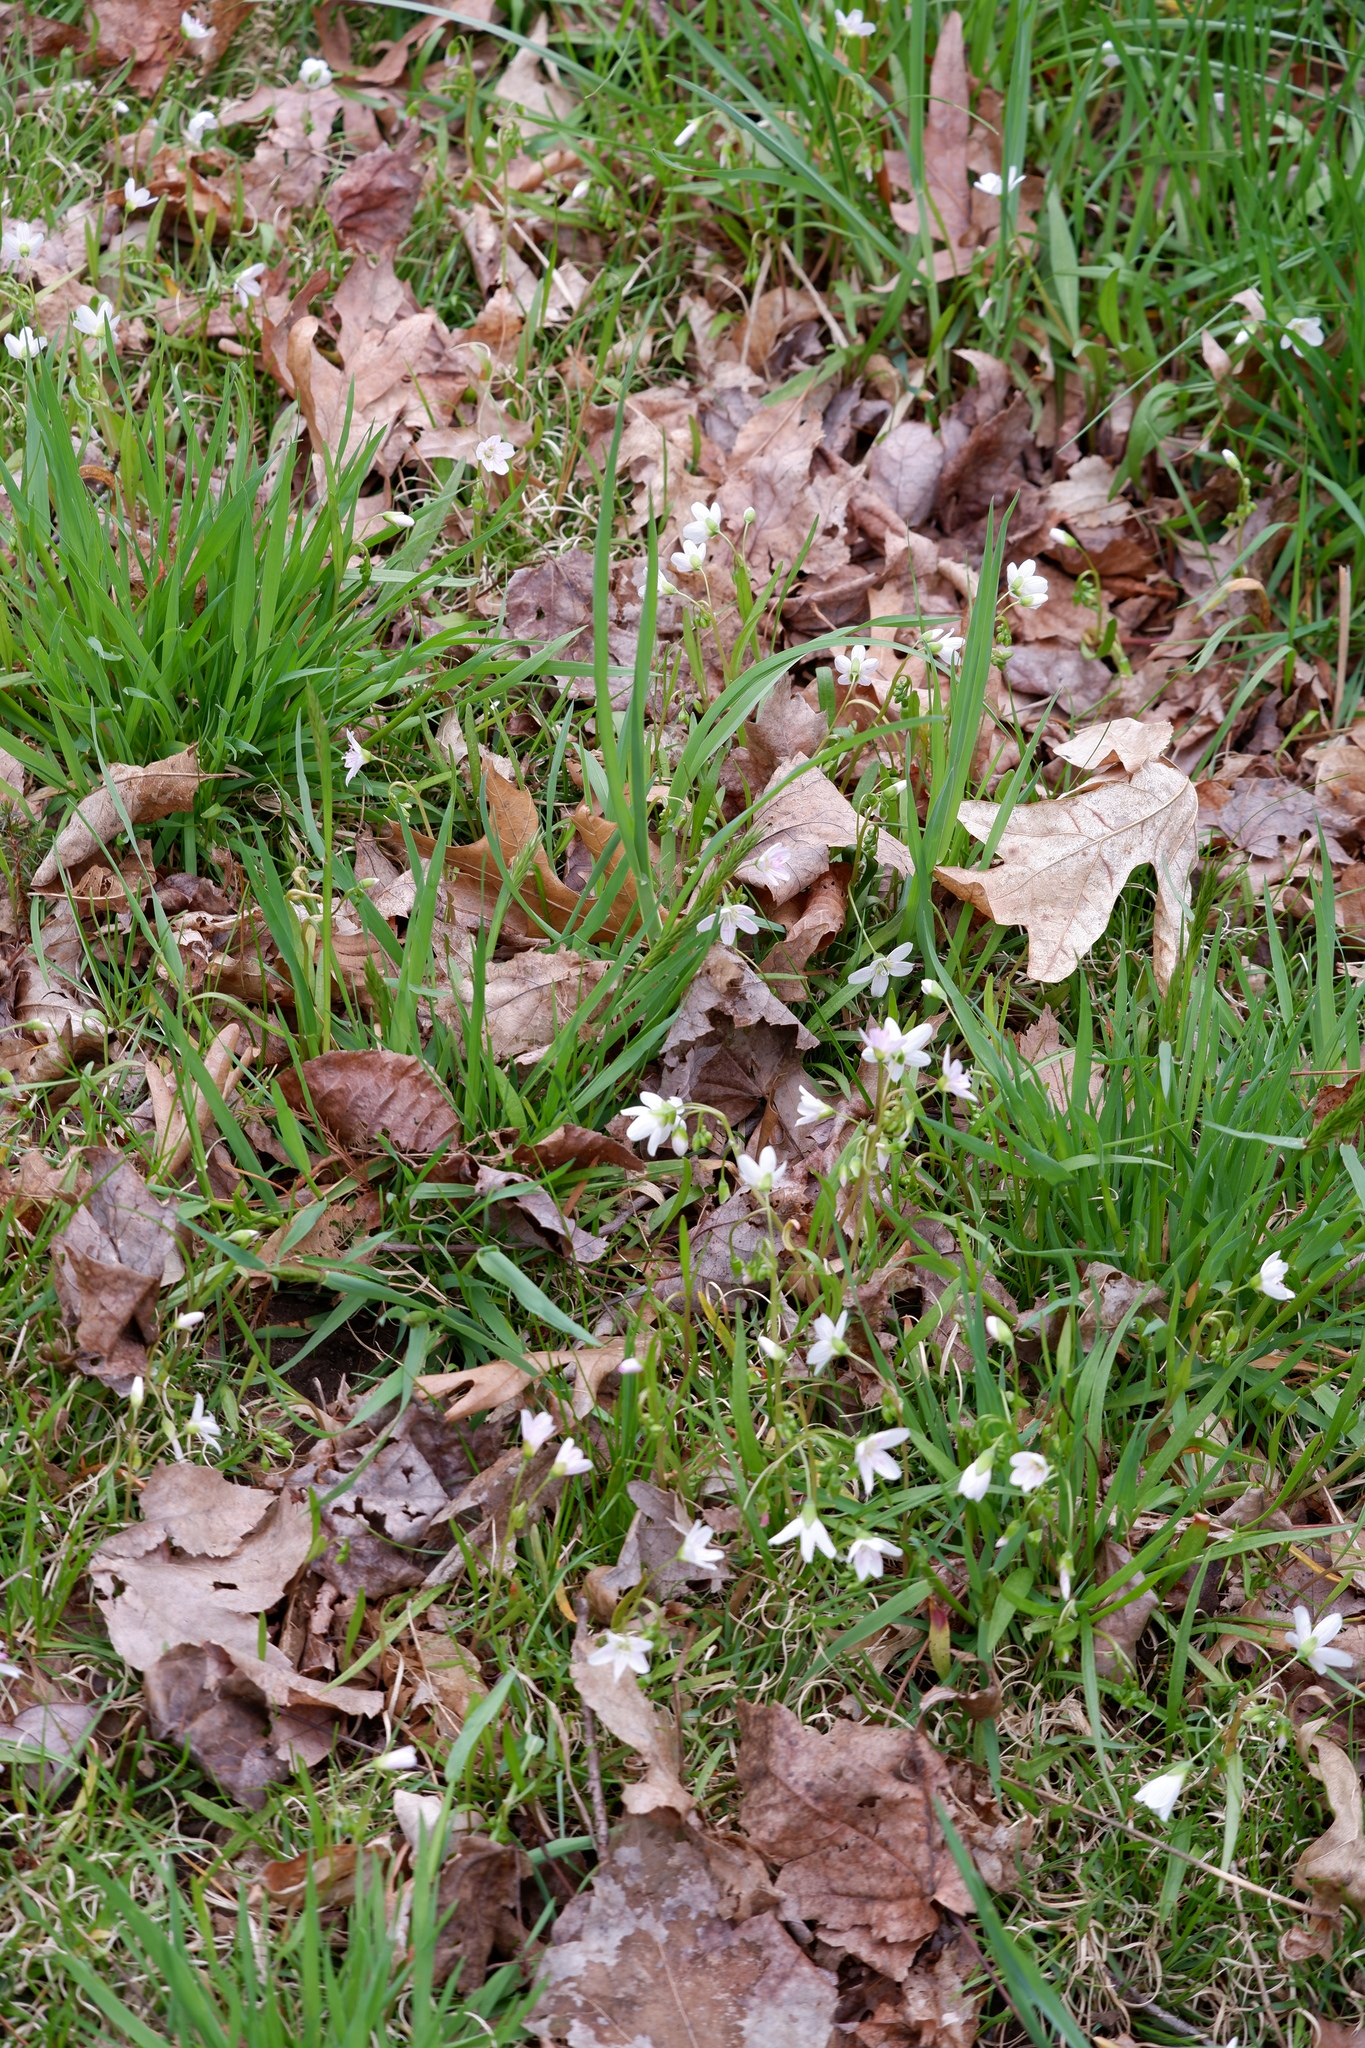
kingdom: Plantae
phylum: Tracheophyta
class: Magnoliopsida
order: Caryophyllales
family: Montiaceae
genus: Claytonia
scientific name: Claytonia virginica
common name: Virginia springbeauty
